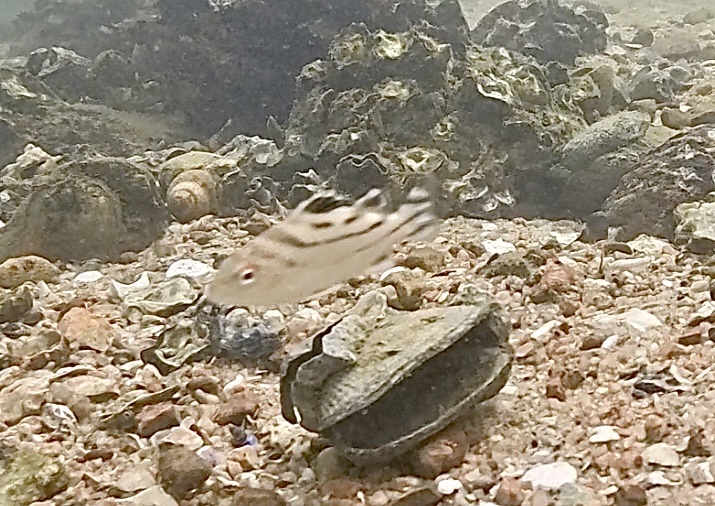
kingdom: Animalia
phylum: Chordata
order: Perciformes
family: Terapontidae
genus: Terapon
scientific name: Terapon jarbua
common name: Jarbua terapon
